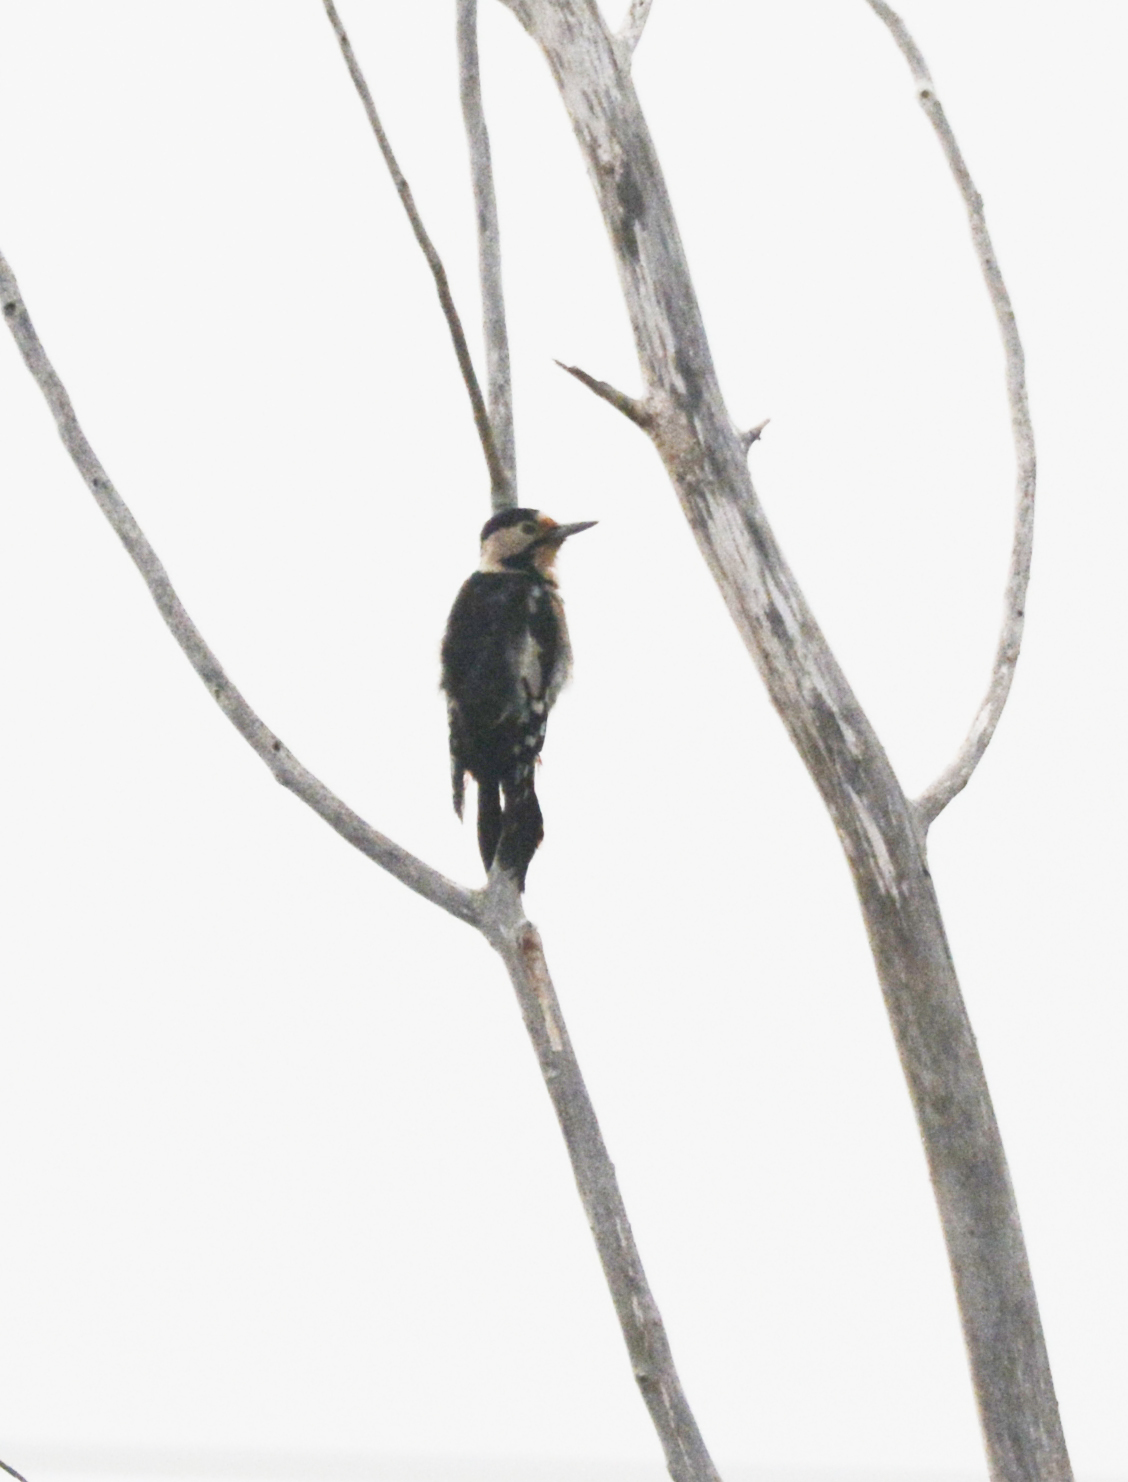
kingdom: Animalia
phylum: Chordata
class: Aves
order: Piciformes
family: Picidae
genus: Dendrocopos
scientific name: Dendrocopos syriacus
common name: Syrian woodpecker
